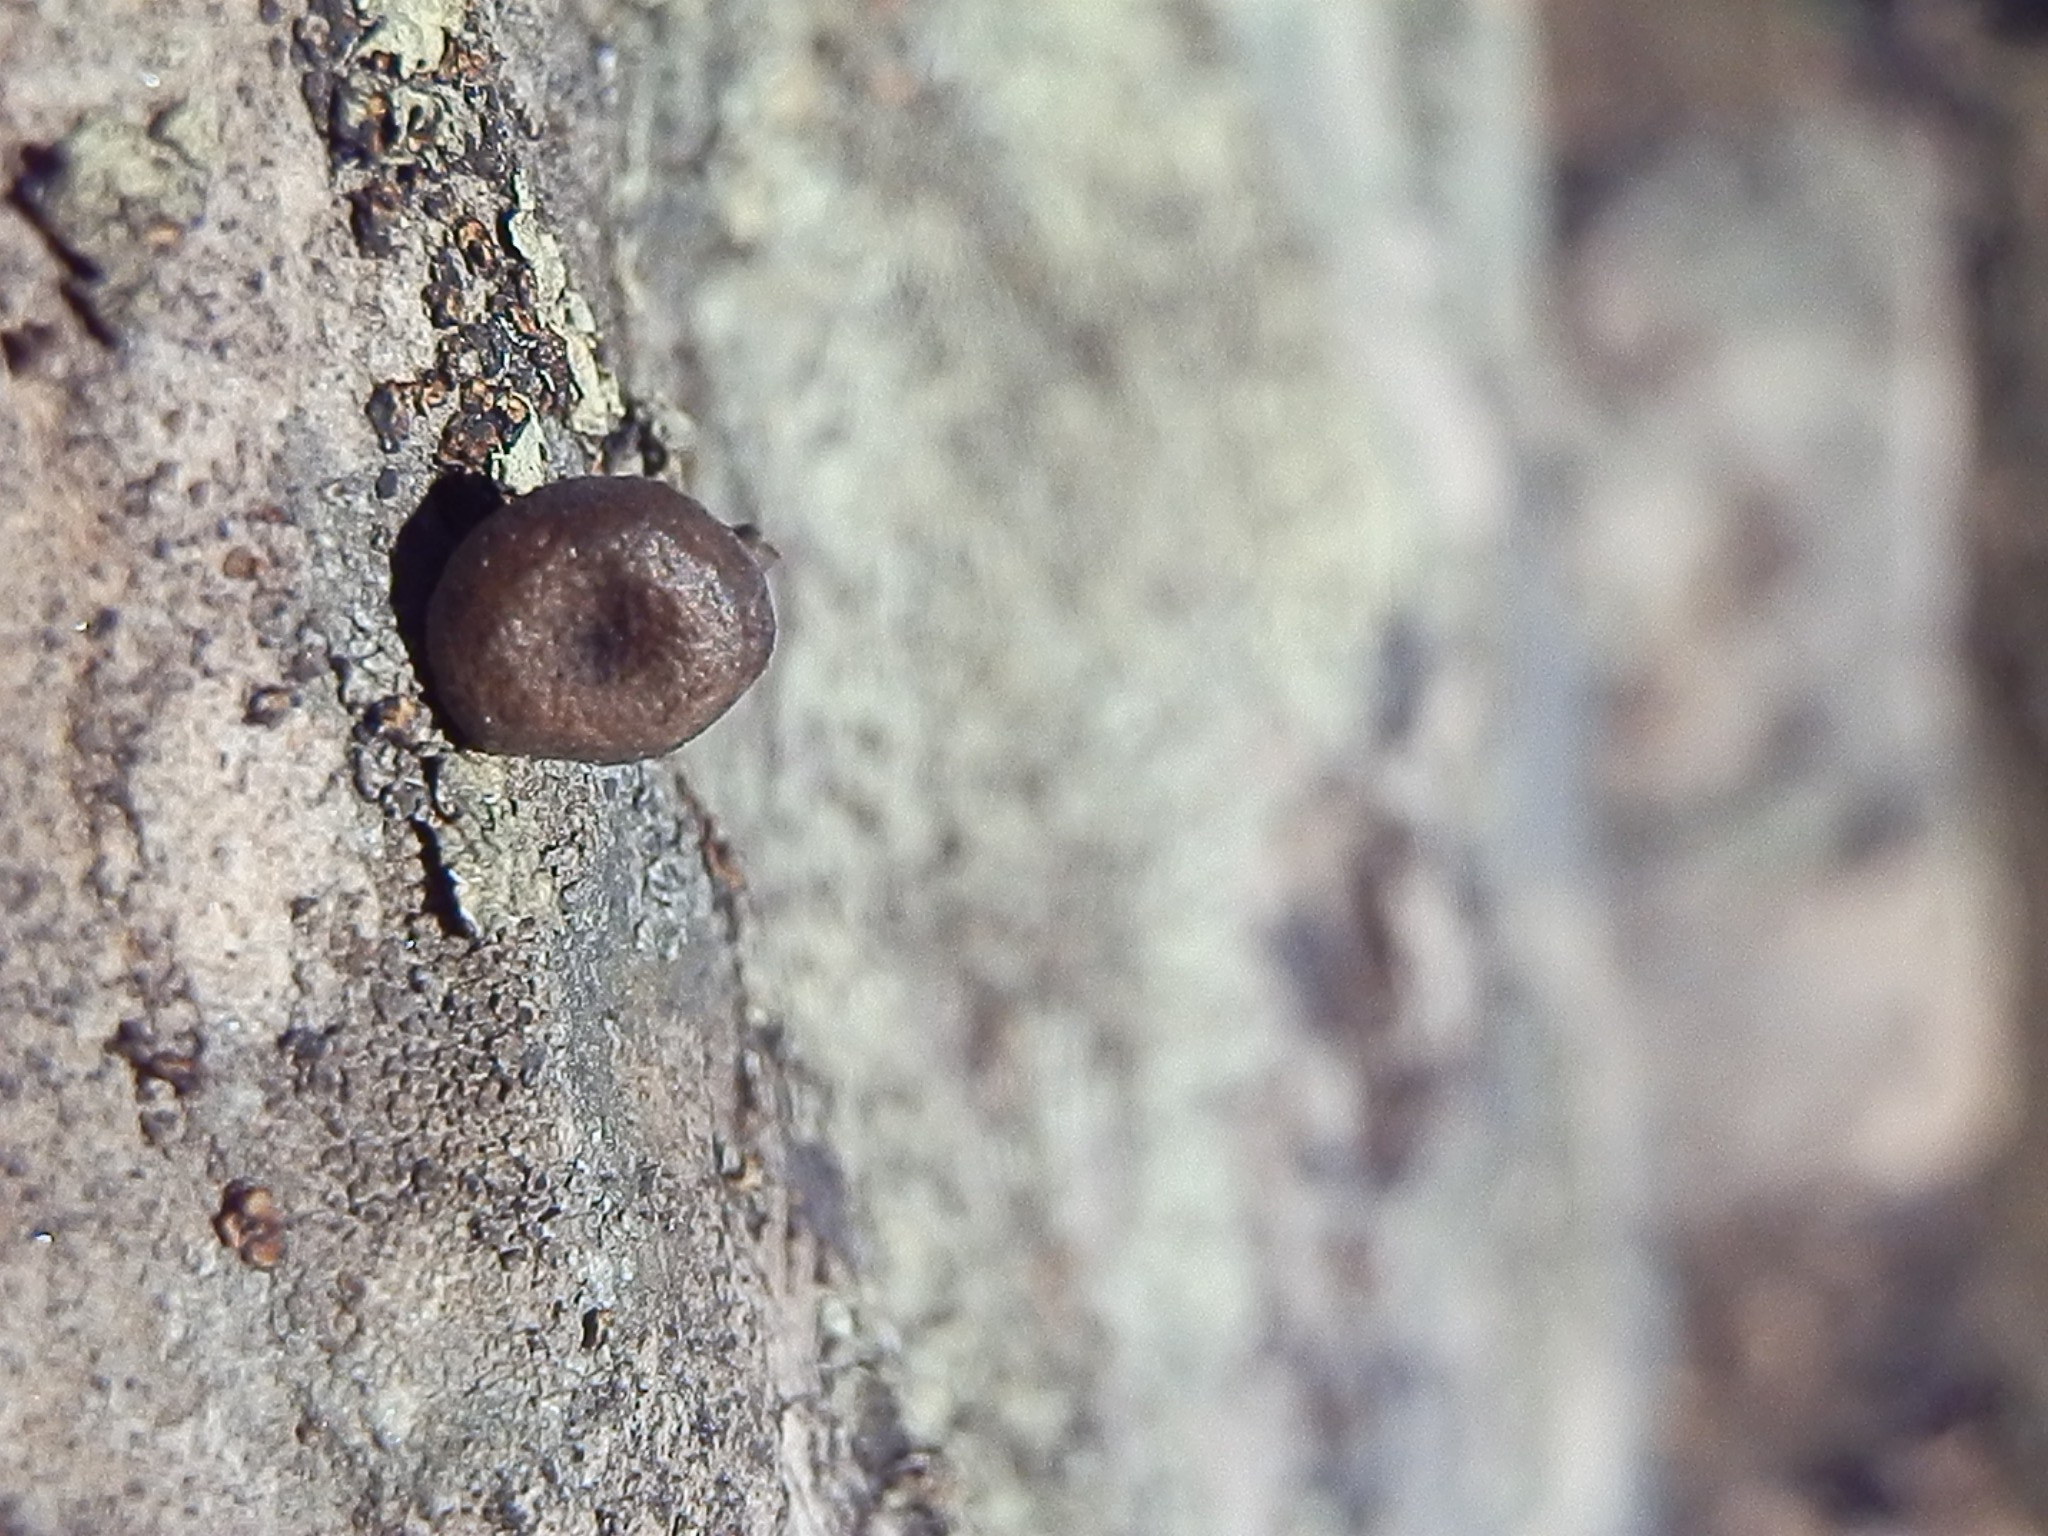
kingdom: Fungi
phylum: Basidiomycota
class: Agaricomycetes
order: Agaricales
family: Tricholomataceae
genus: Myxomphalia
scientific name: Myxomphalia maura
